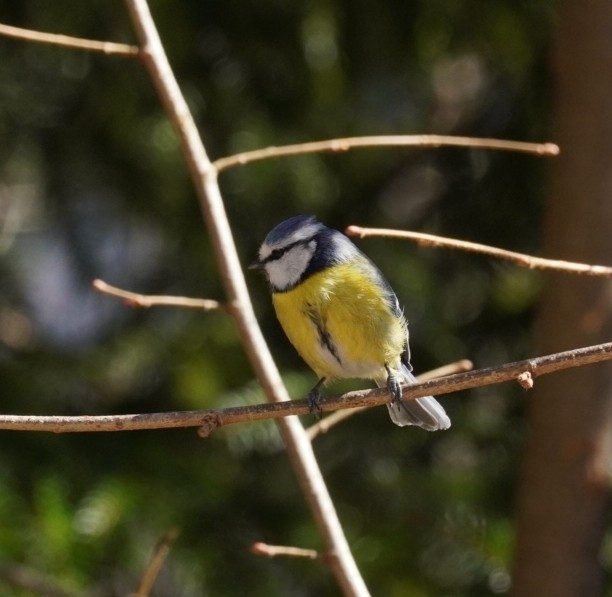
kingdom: Animalia
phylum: Chordata
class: Aves
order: Passeriformes
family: Paridae
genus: Cyanistes
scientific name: Cyanistes caeruleus
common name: Eurasian blue tit
